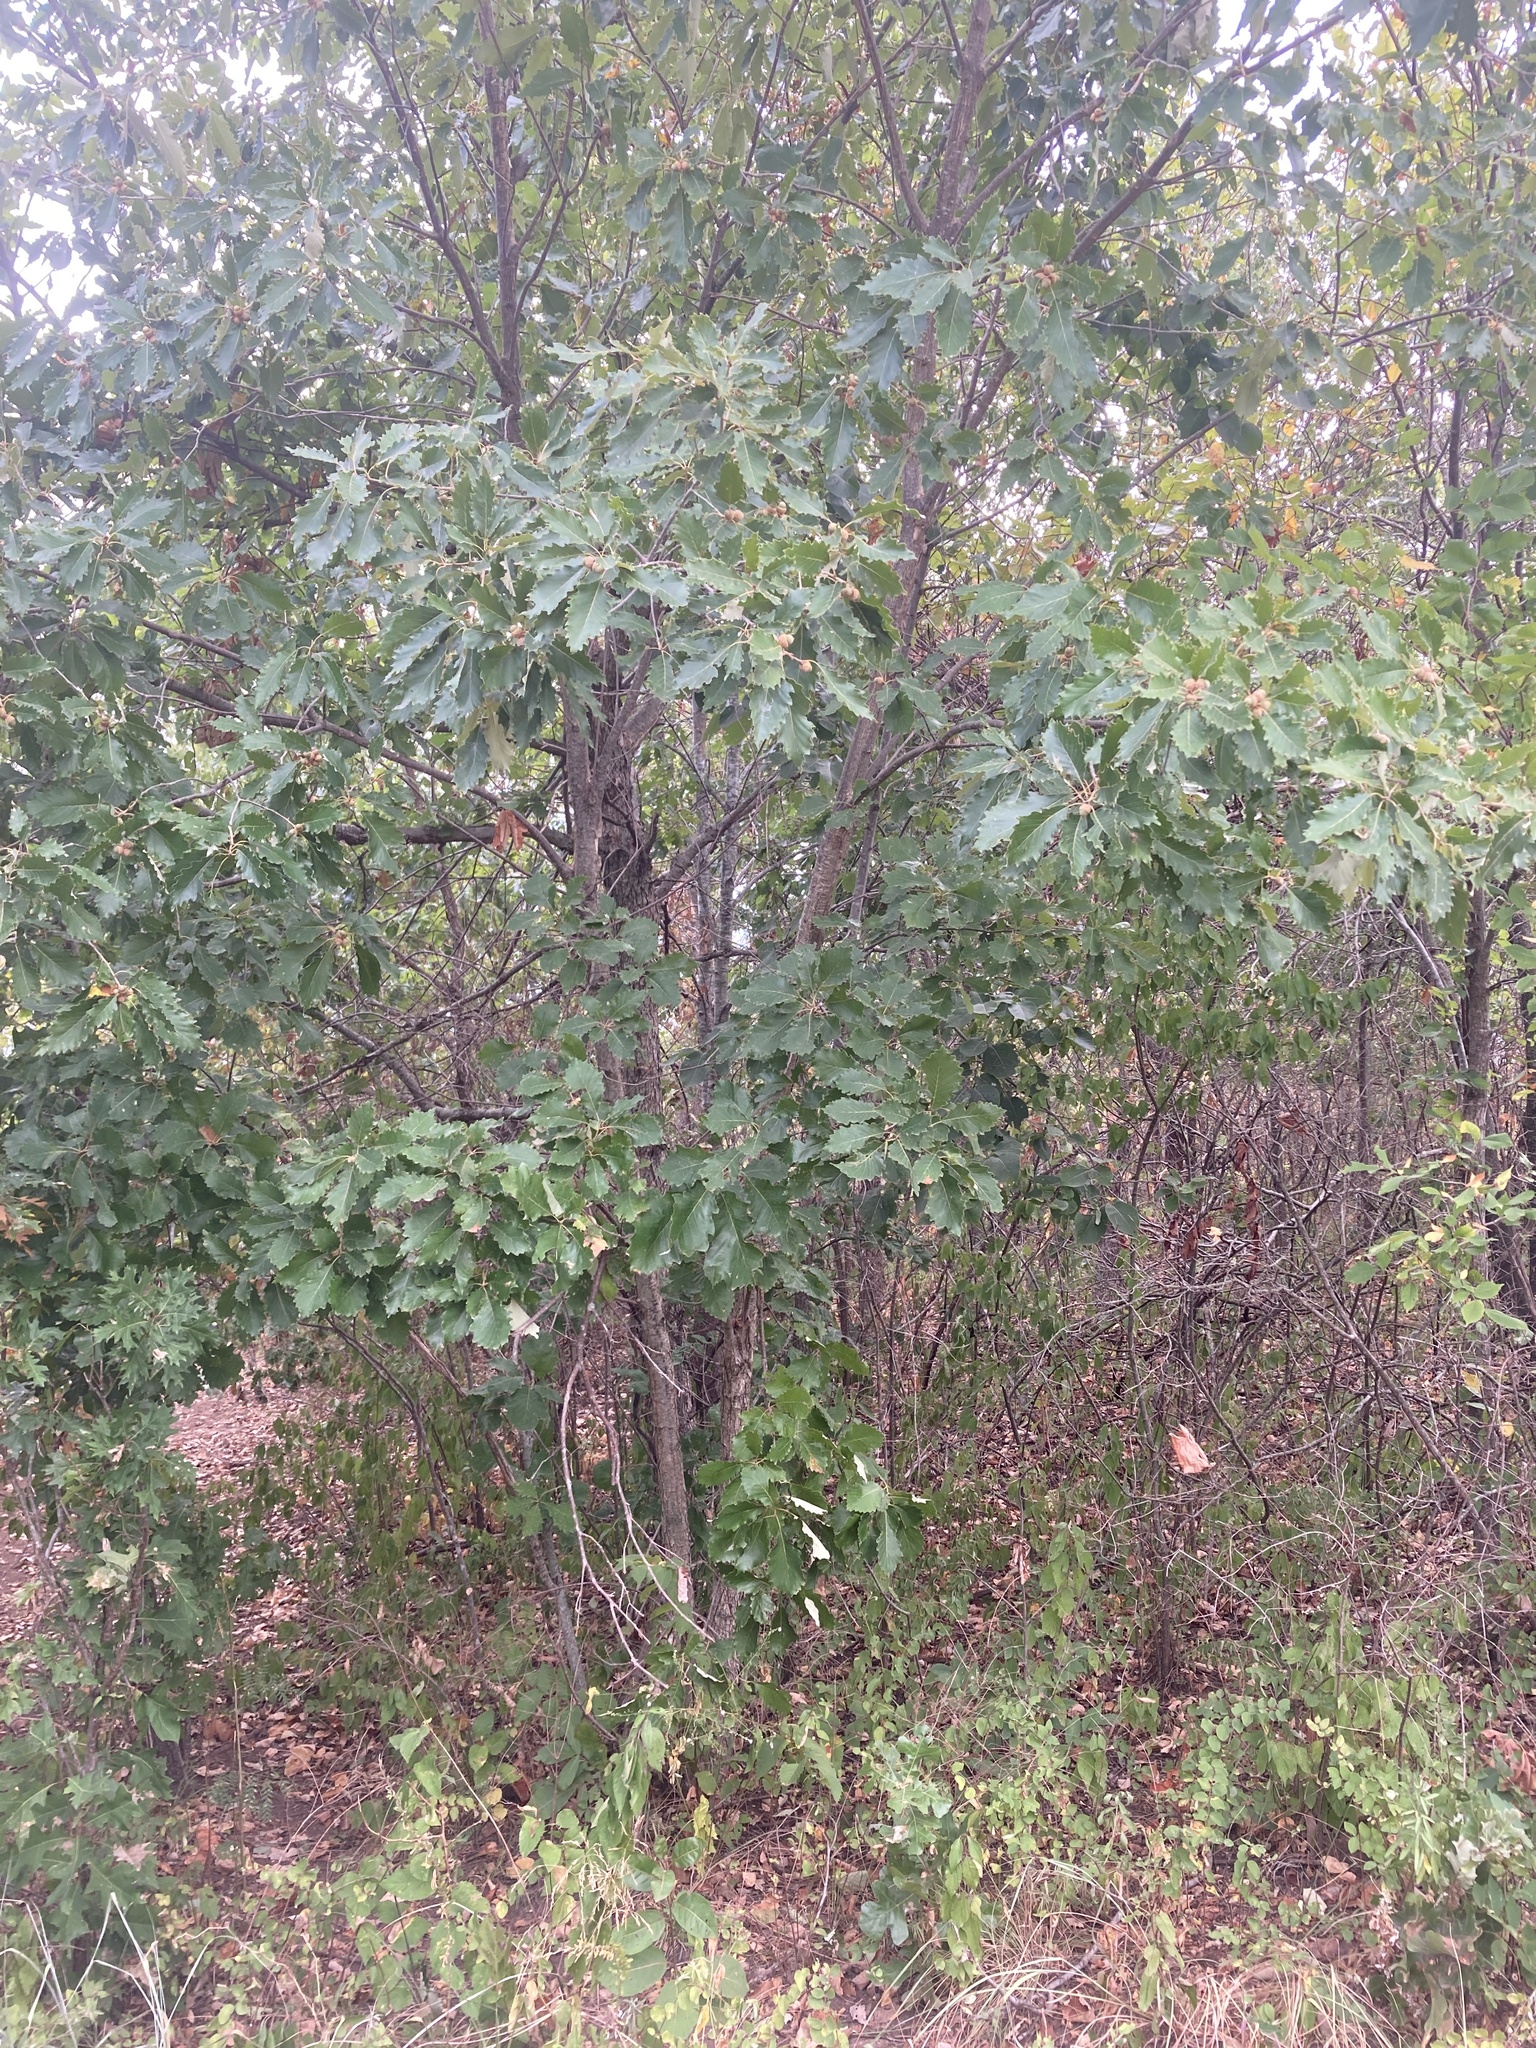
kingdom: Plantae
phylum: Tracheophyta
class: Magnoliopsida
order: Fagales
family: Fagaceae
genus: Quercus
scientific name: Quercus muehlenbergii
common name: Chinkapin oak
